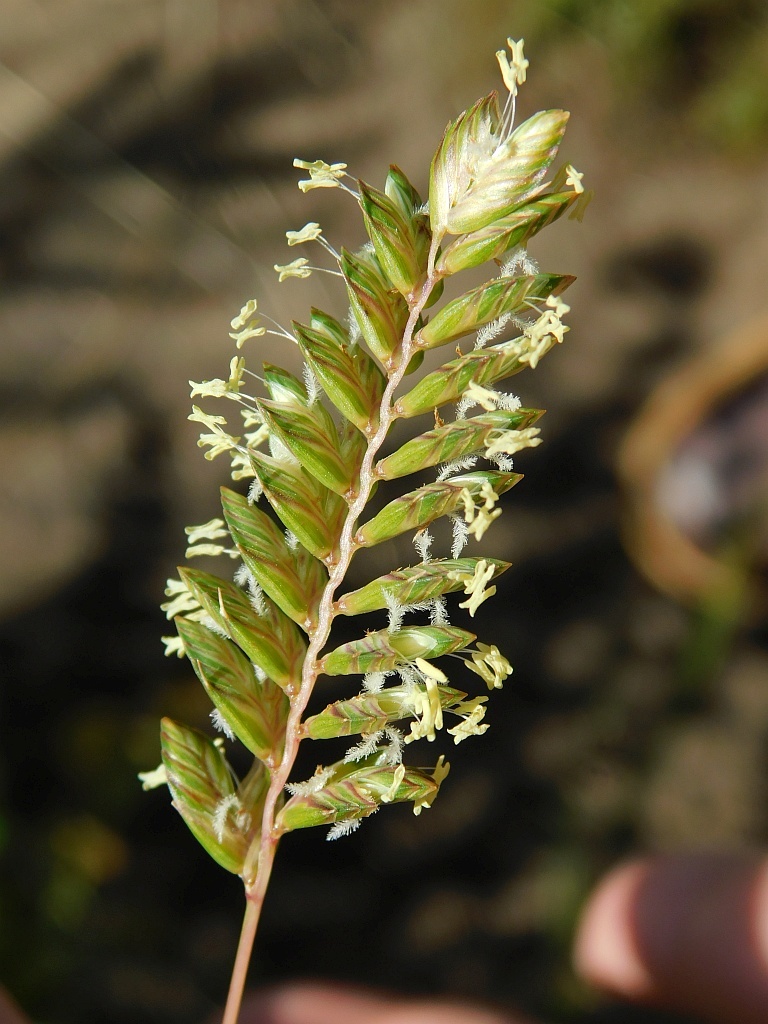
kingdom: Plantae
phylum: Tracheophyta
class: Liliopsida
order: Poales
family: Poaceae
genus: Tribolium
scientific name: Tribolium uniolae
